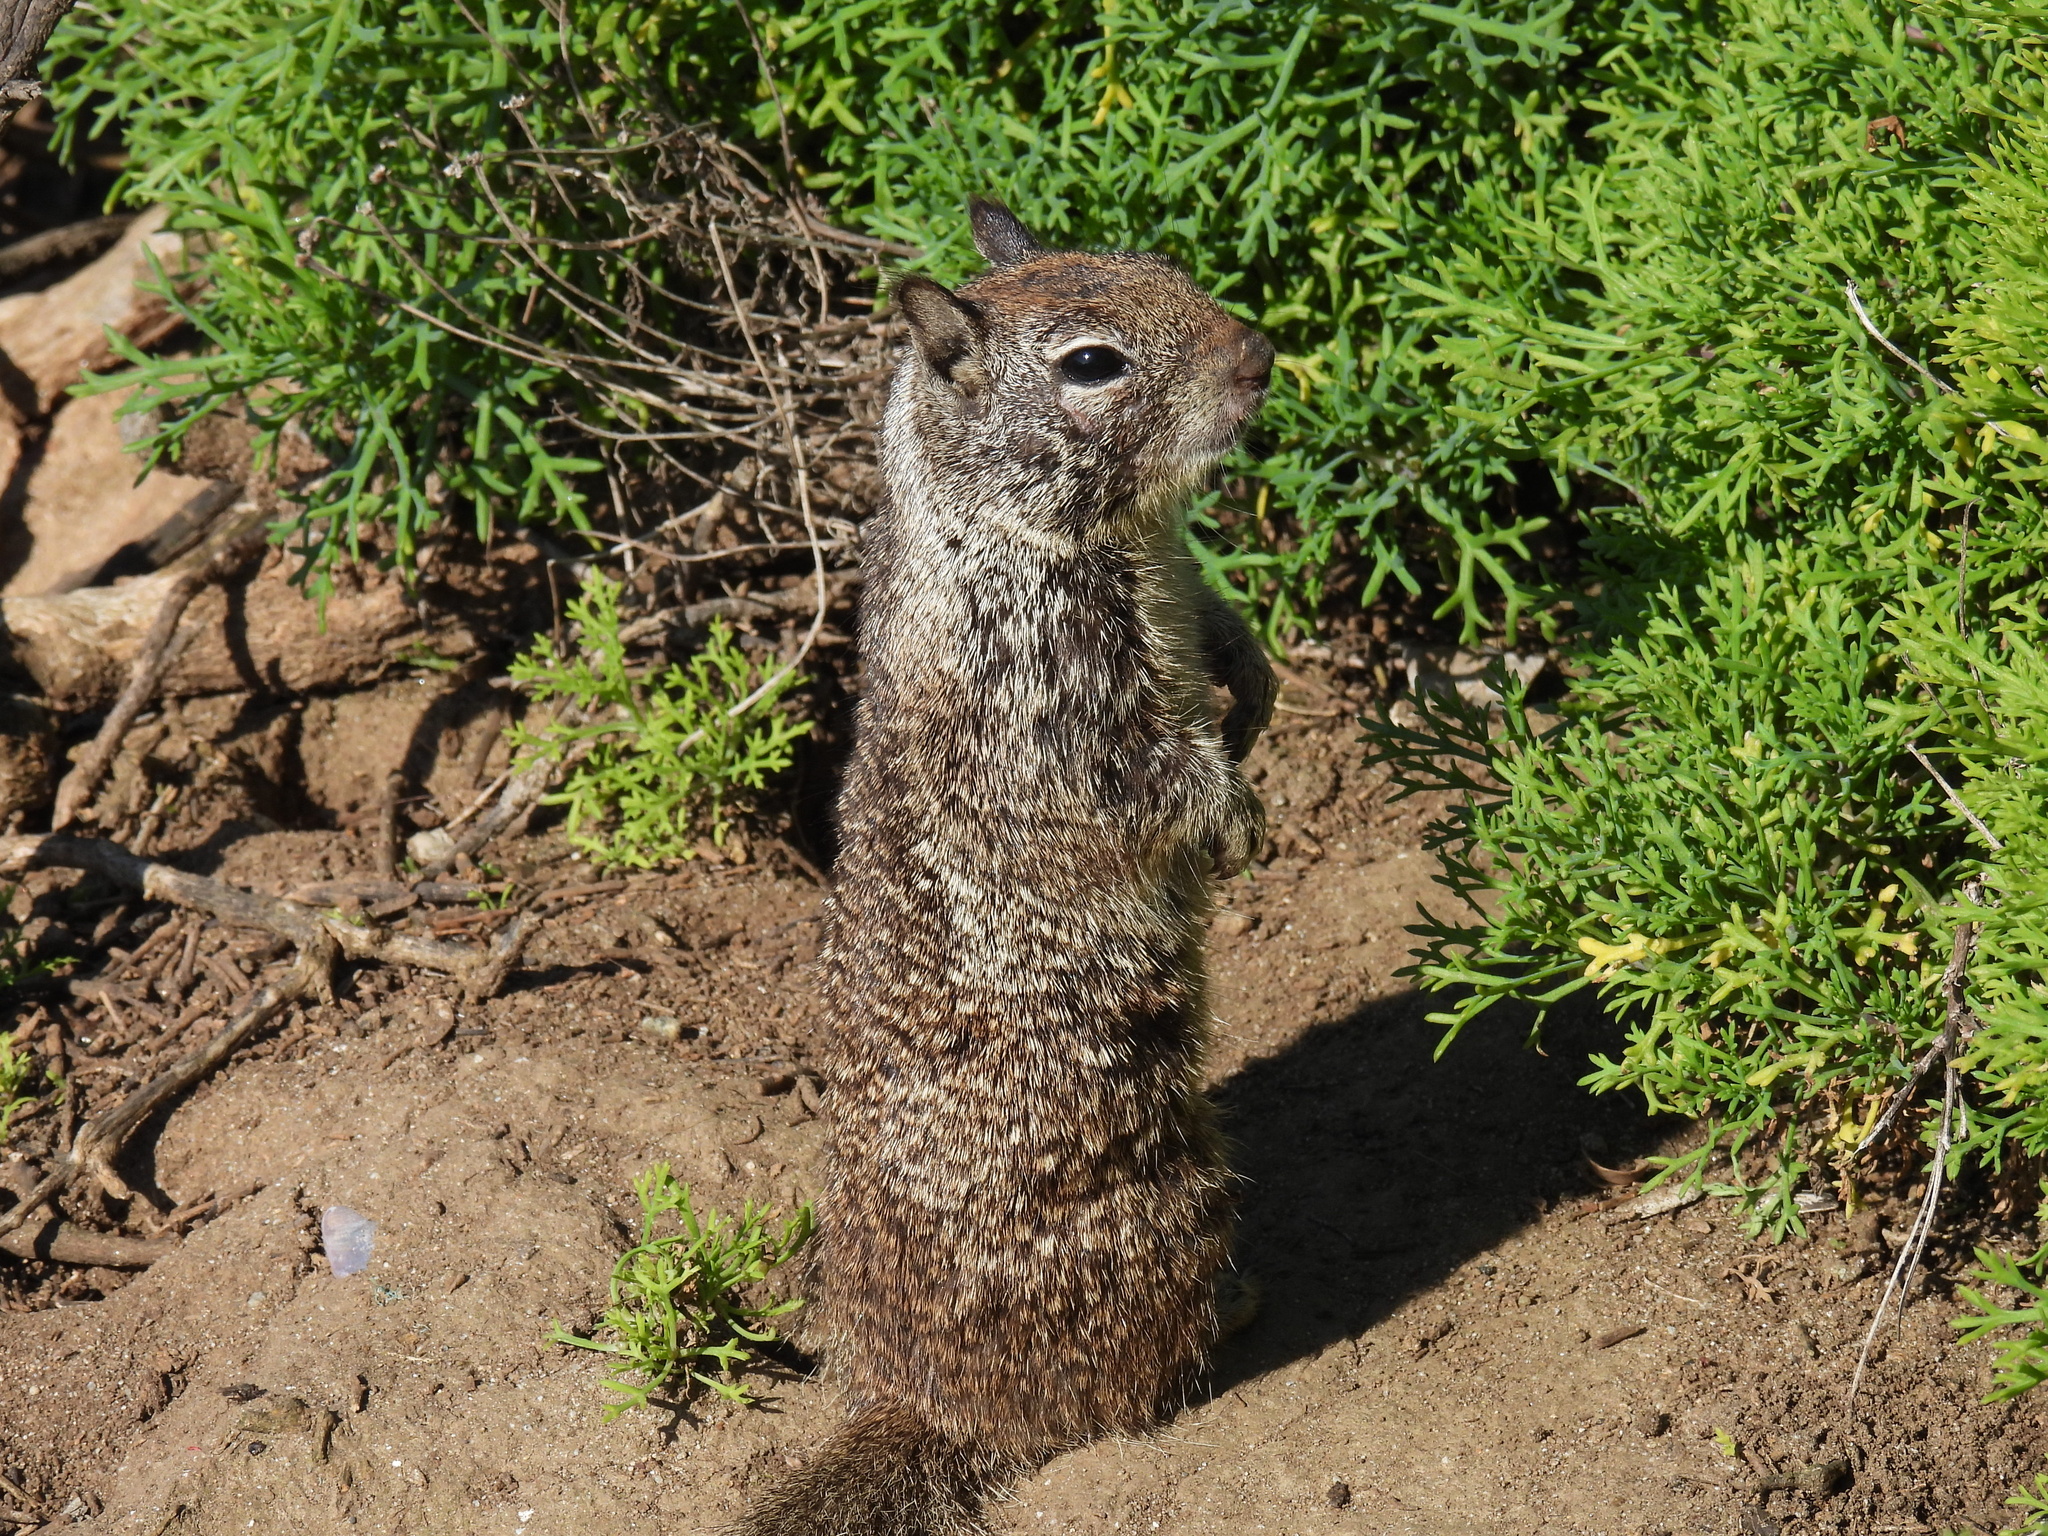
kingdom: Animalia
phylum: Chordata
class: Mammalia
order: Rodentia
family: Sciuridae
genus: Otospermophilus
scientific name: Otospermophilus beecheyi
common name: California ground squirrel
